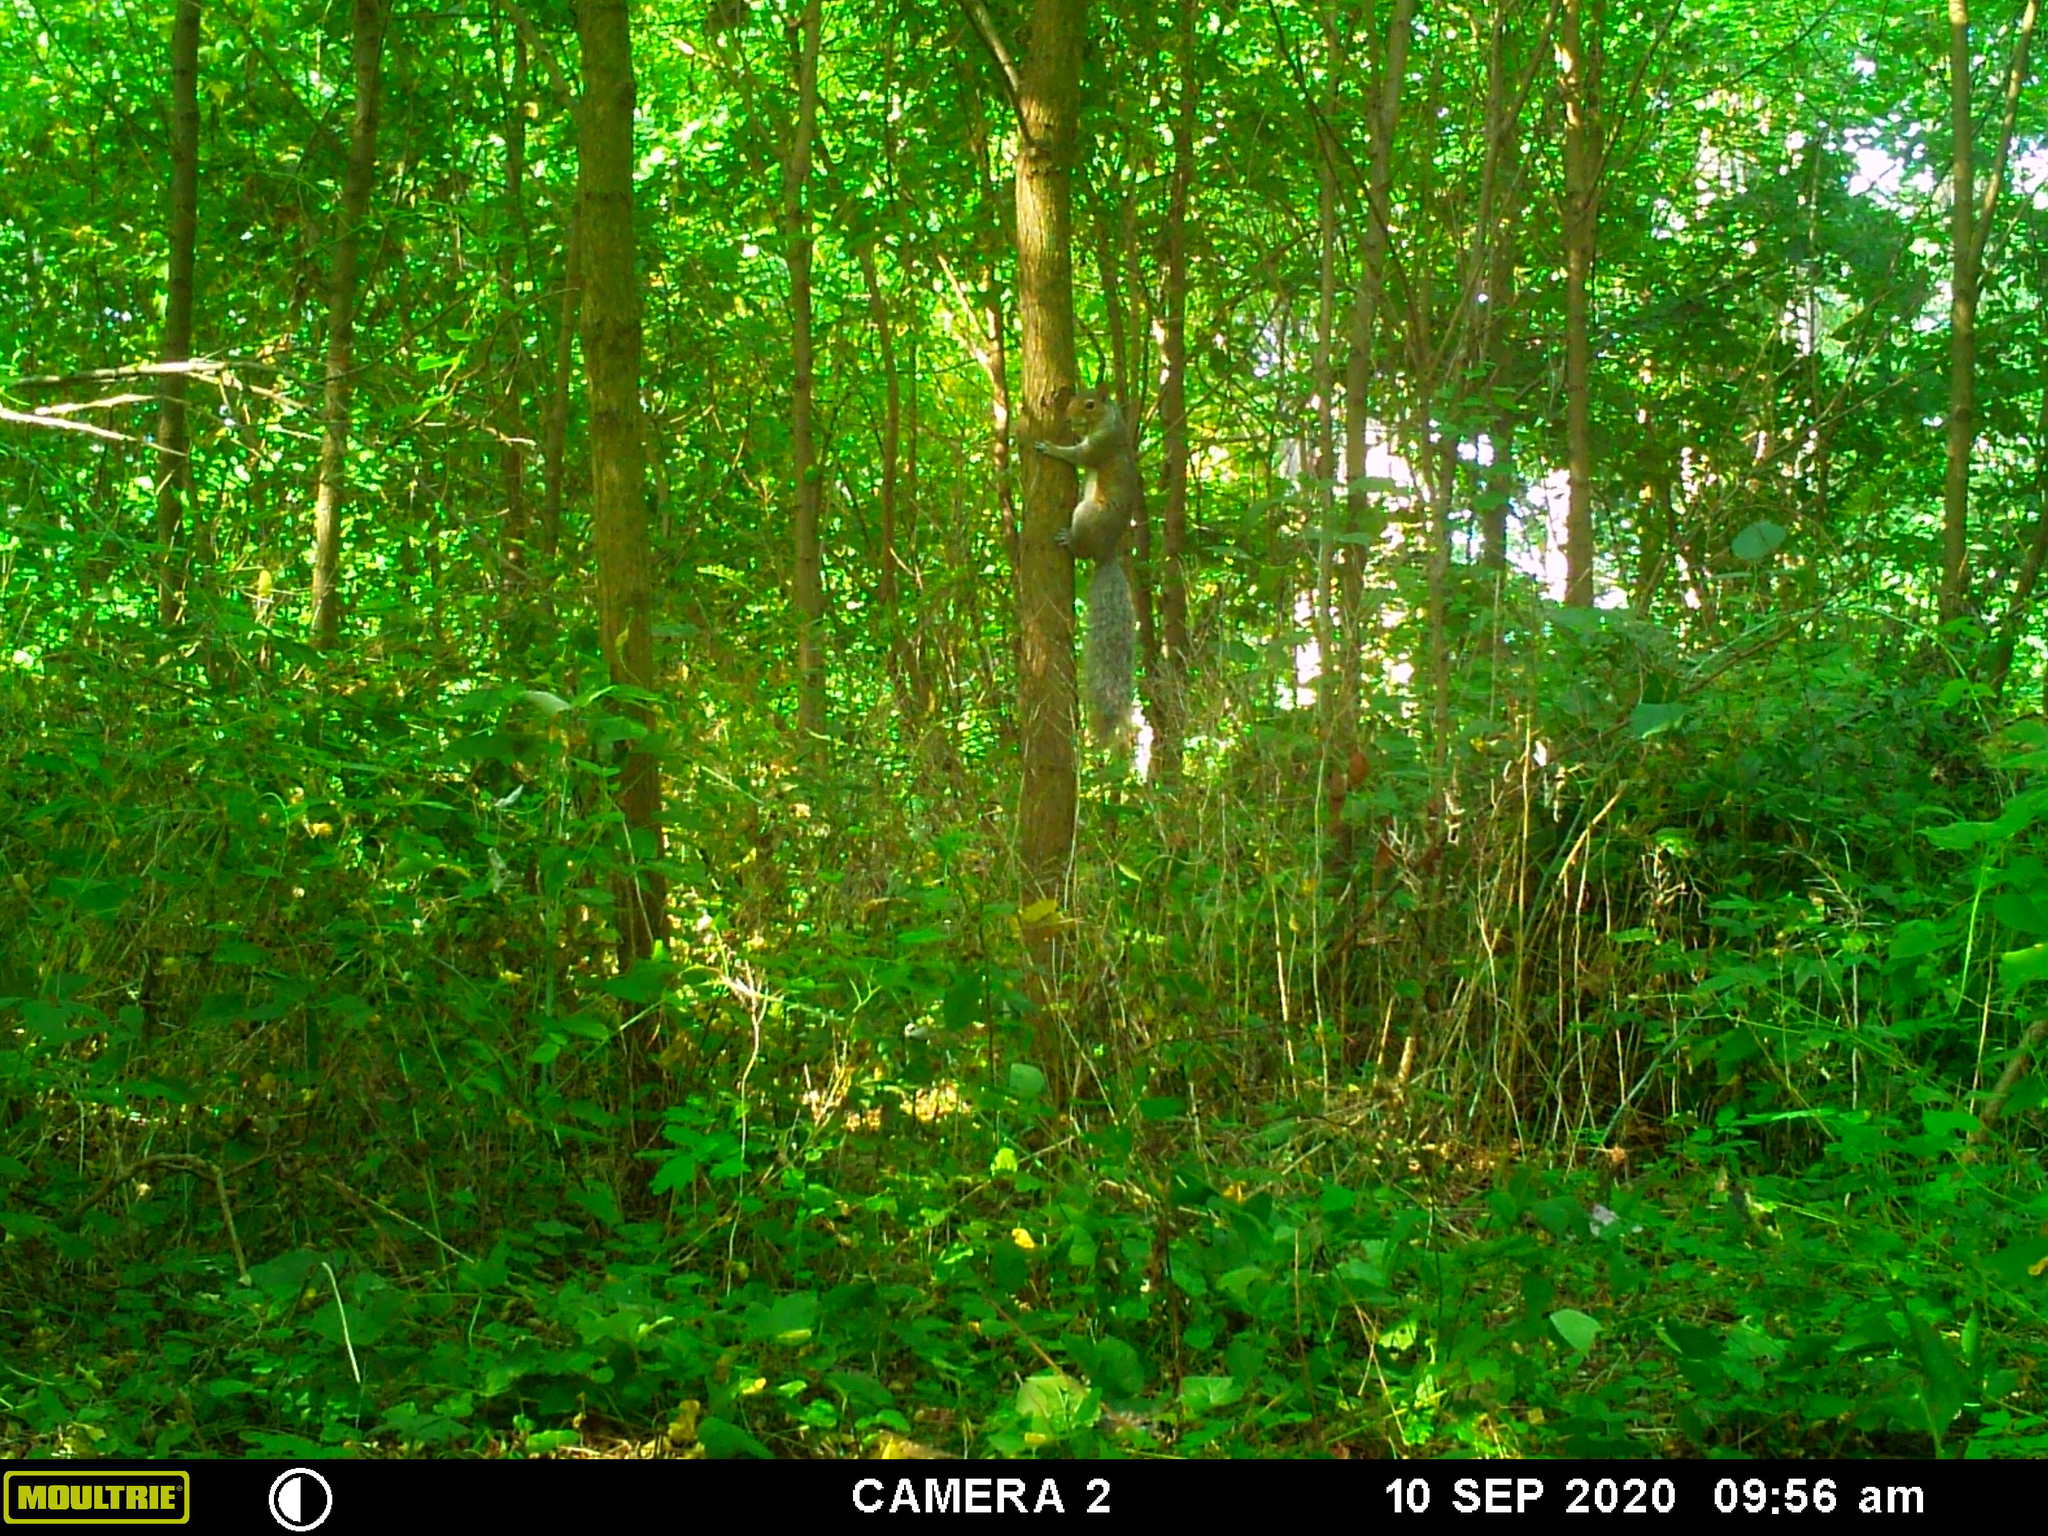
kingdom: Animalia
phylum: Chordata
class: Mammalia
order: Rodentia
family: Sciuridae
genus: Sciurus
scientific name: Sciurus carolinensis
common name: Eastern gray squirrel
